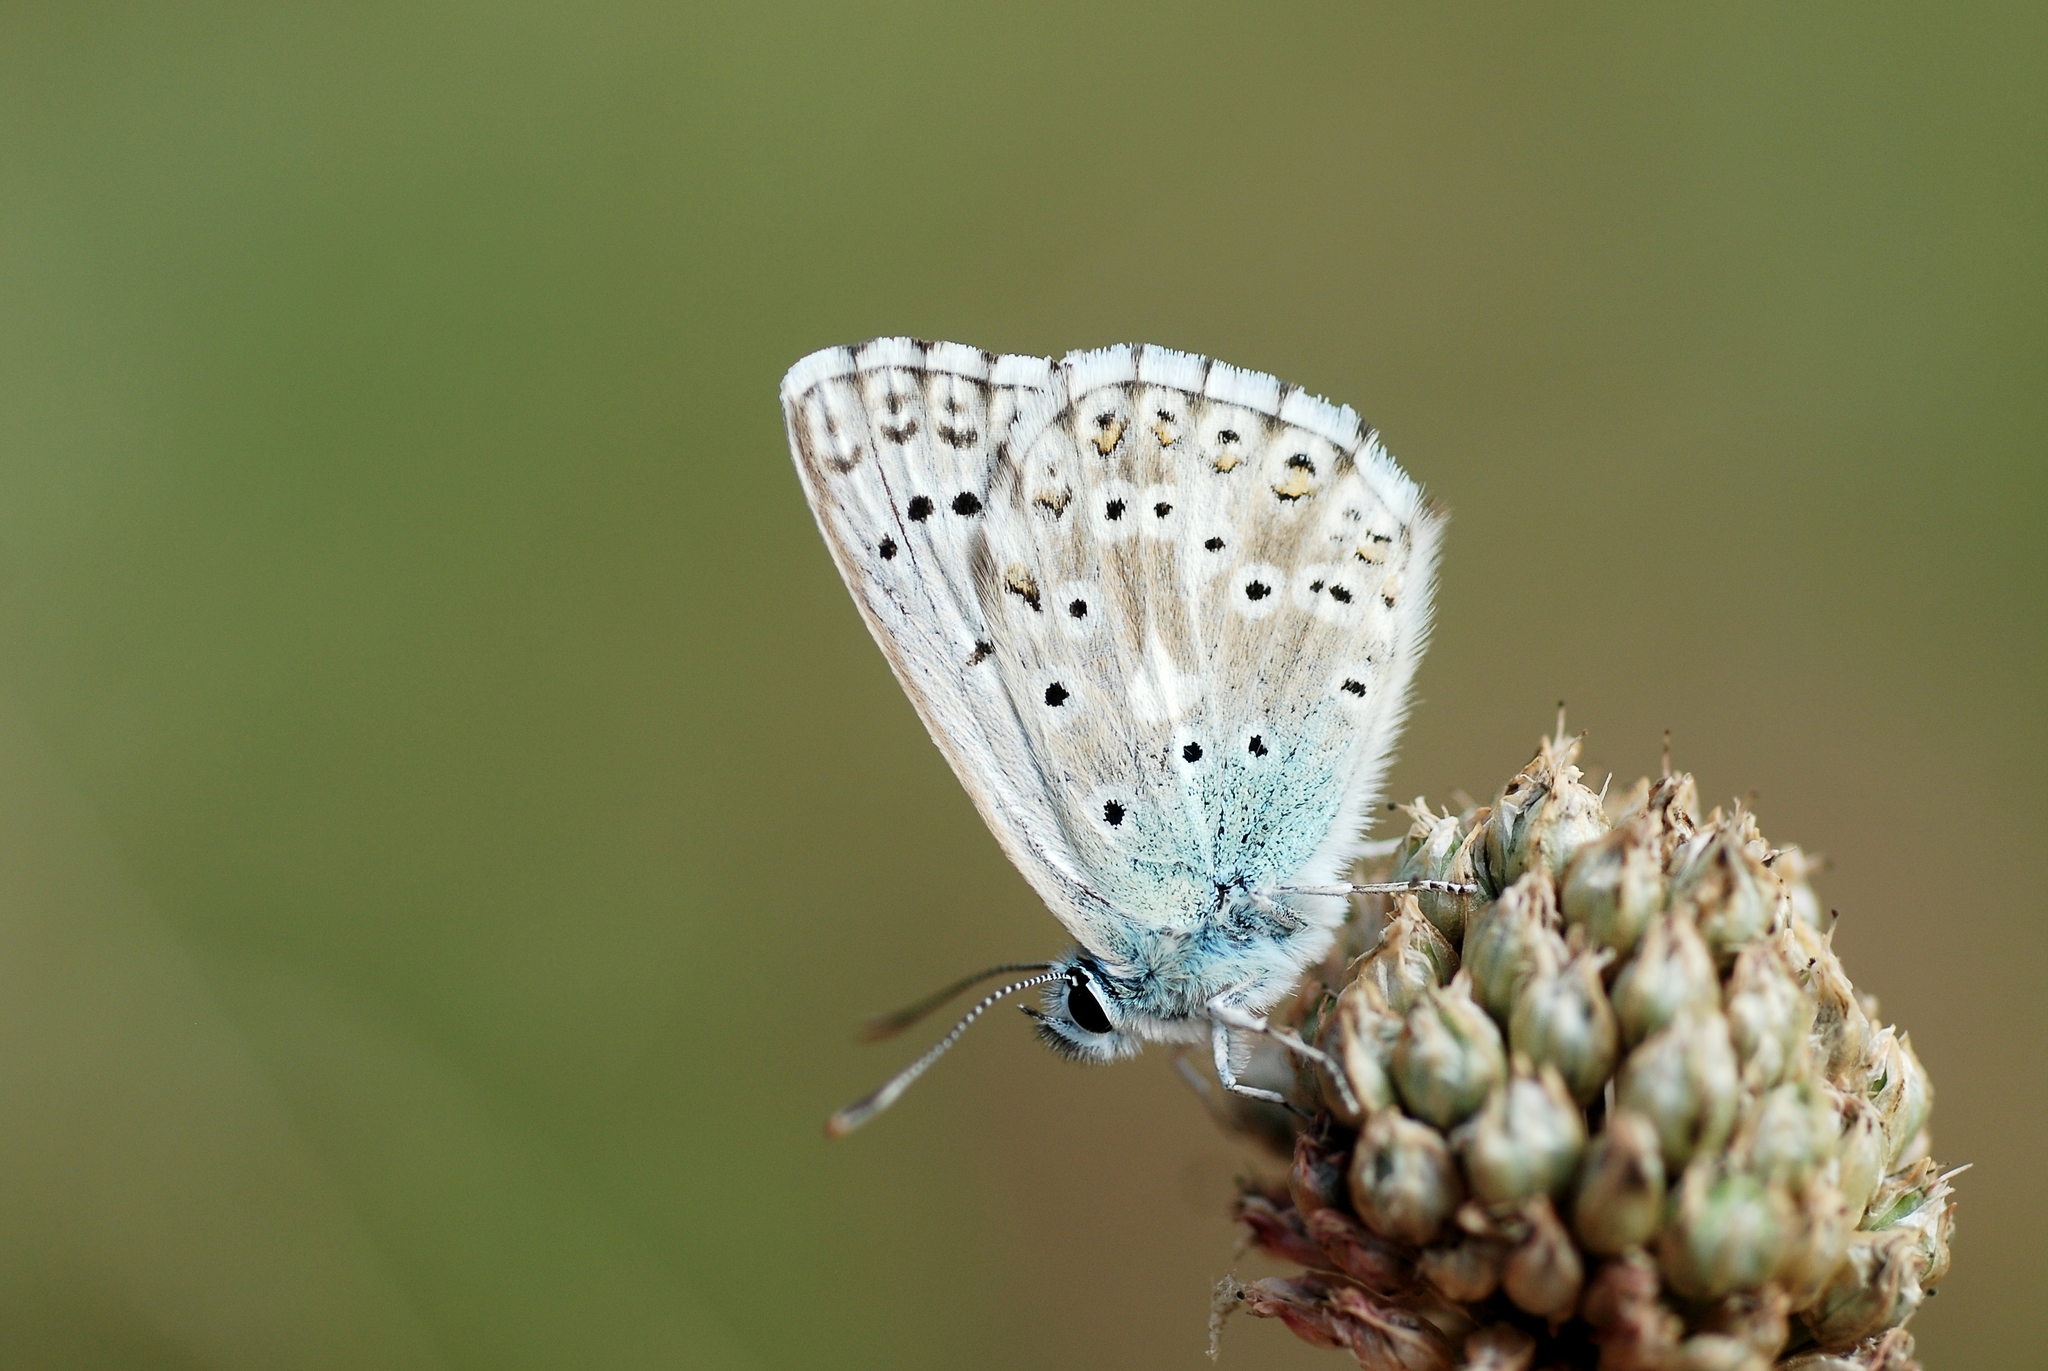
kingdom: Animalia
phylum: Arthropoda
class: Insecta
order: Lepidoptera
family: Lycaenidae
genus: Lysandra
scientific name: Lysandra coridon
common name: Chalkhill blue
